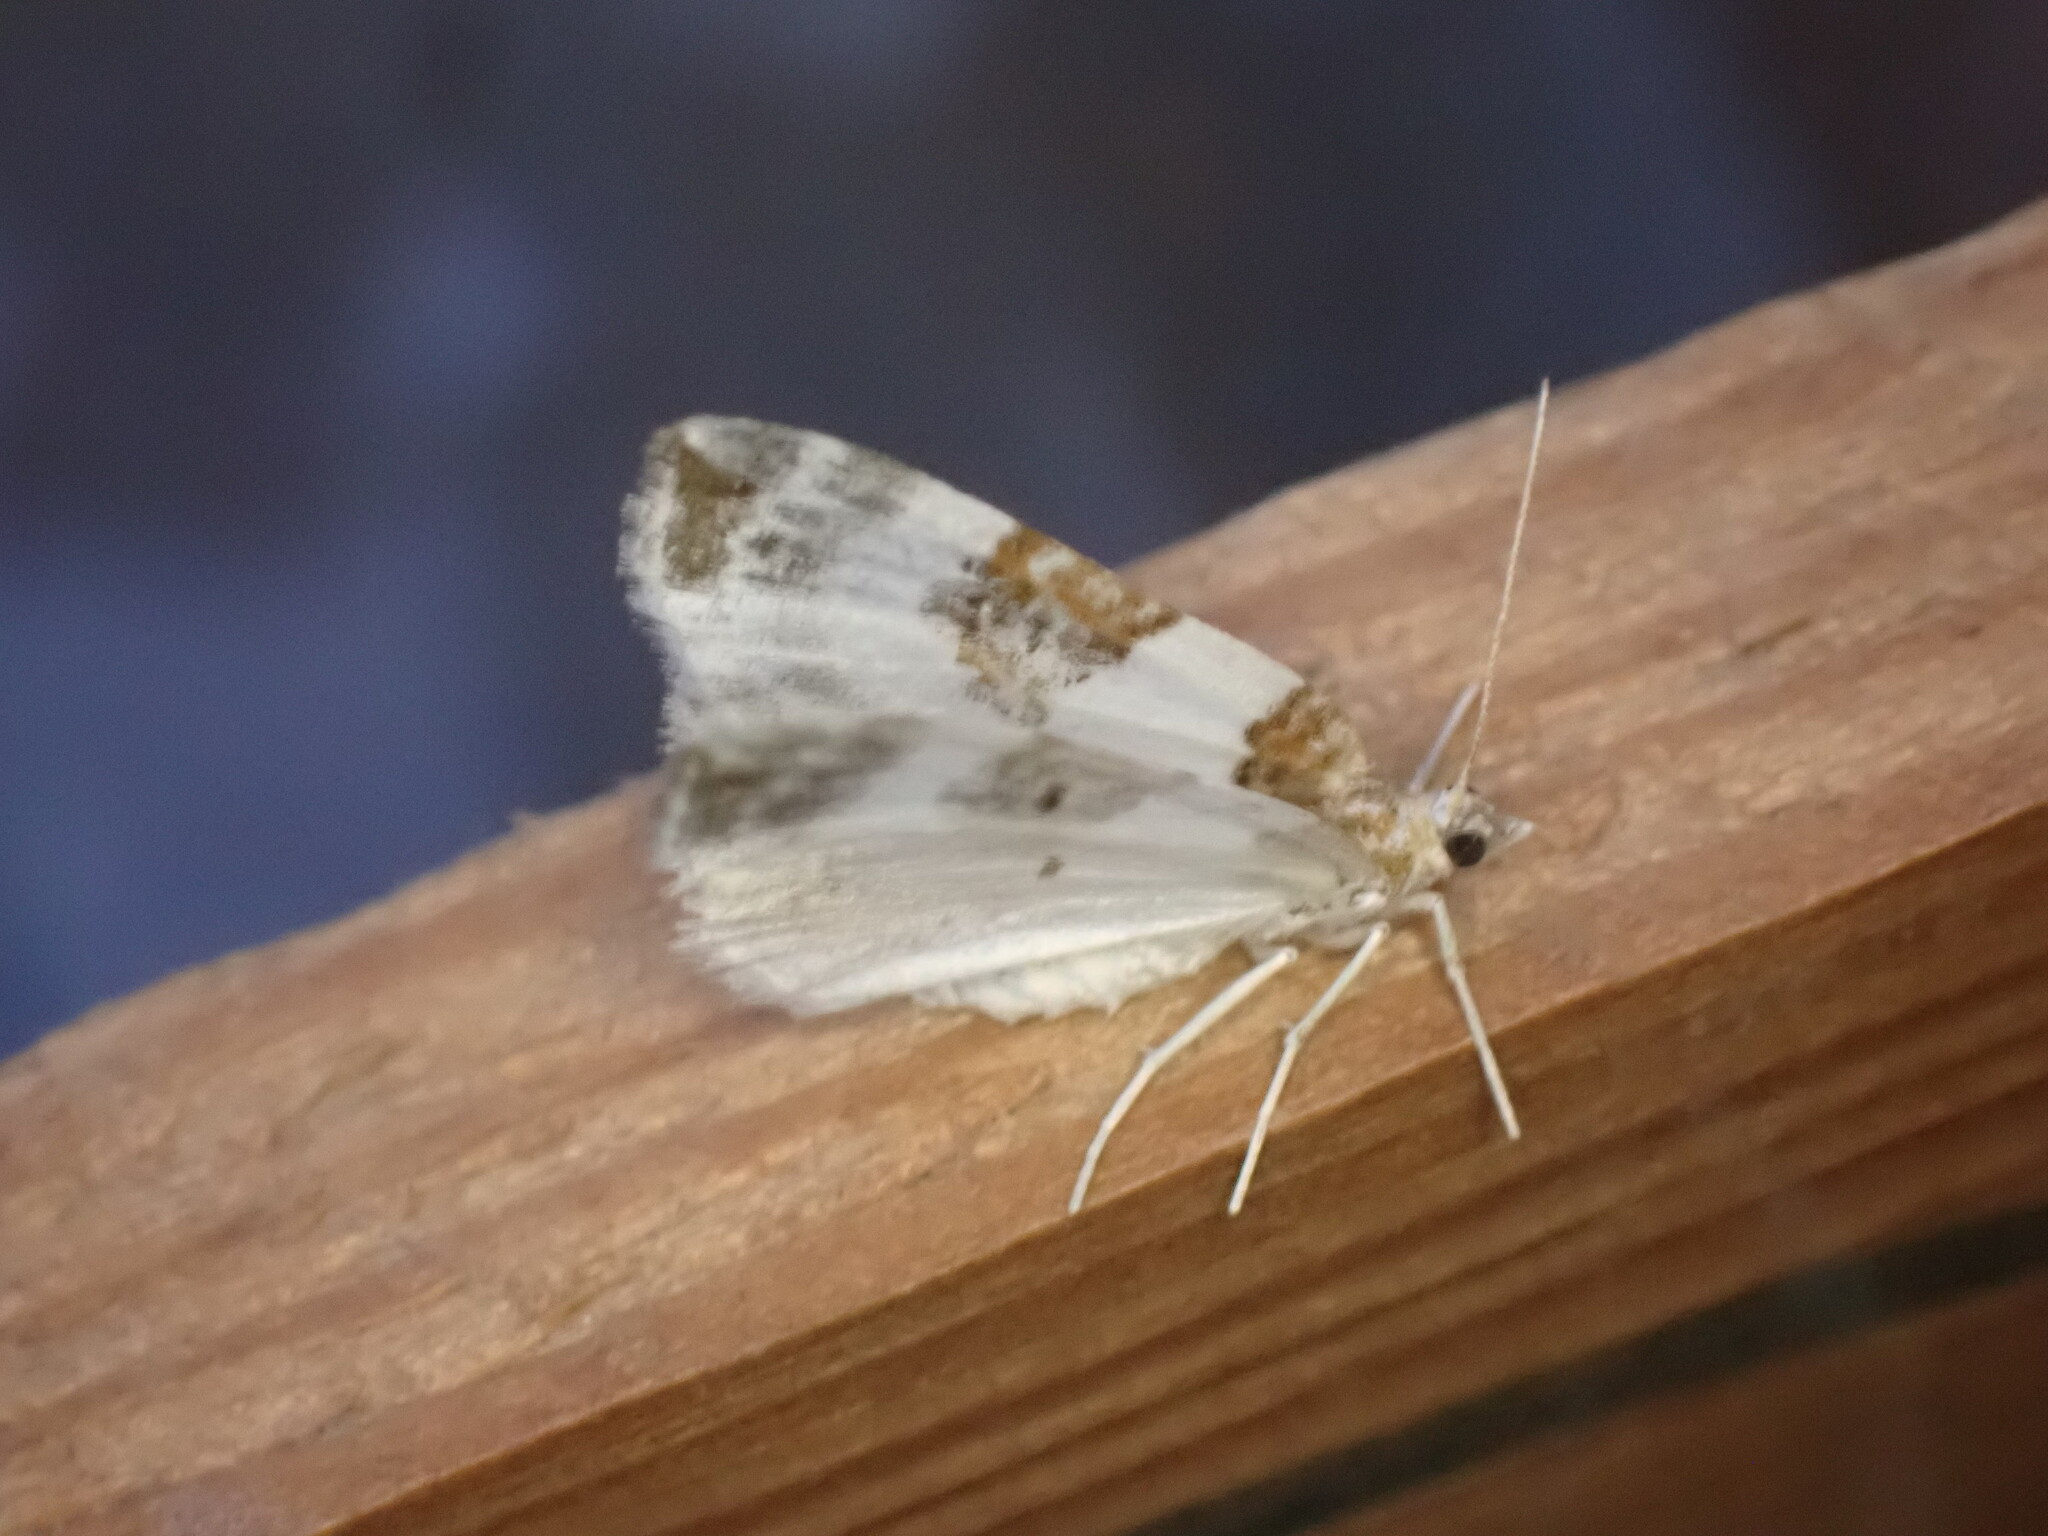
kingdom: Animalia
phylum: Arthropoda
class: Insecta
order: Lepidoptera
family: Geometridae
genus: Plemyria
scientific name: Plemyria rubiginata
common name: Blue-bordered carpet
